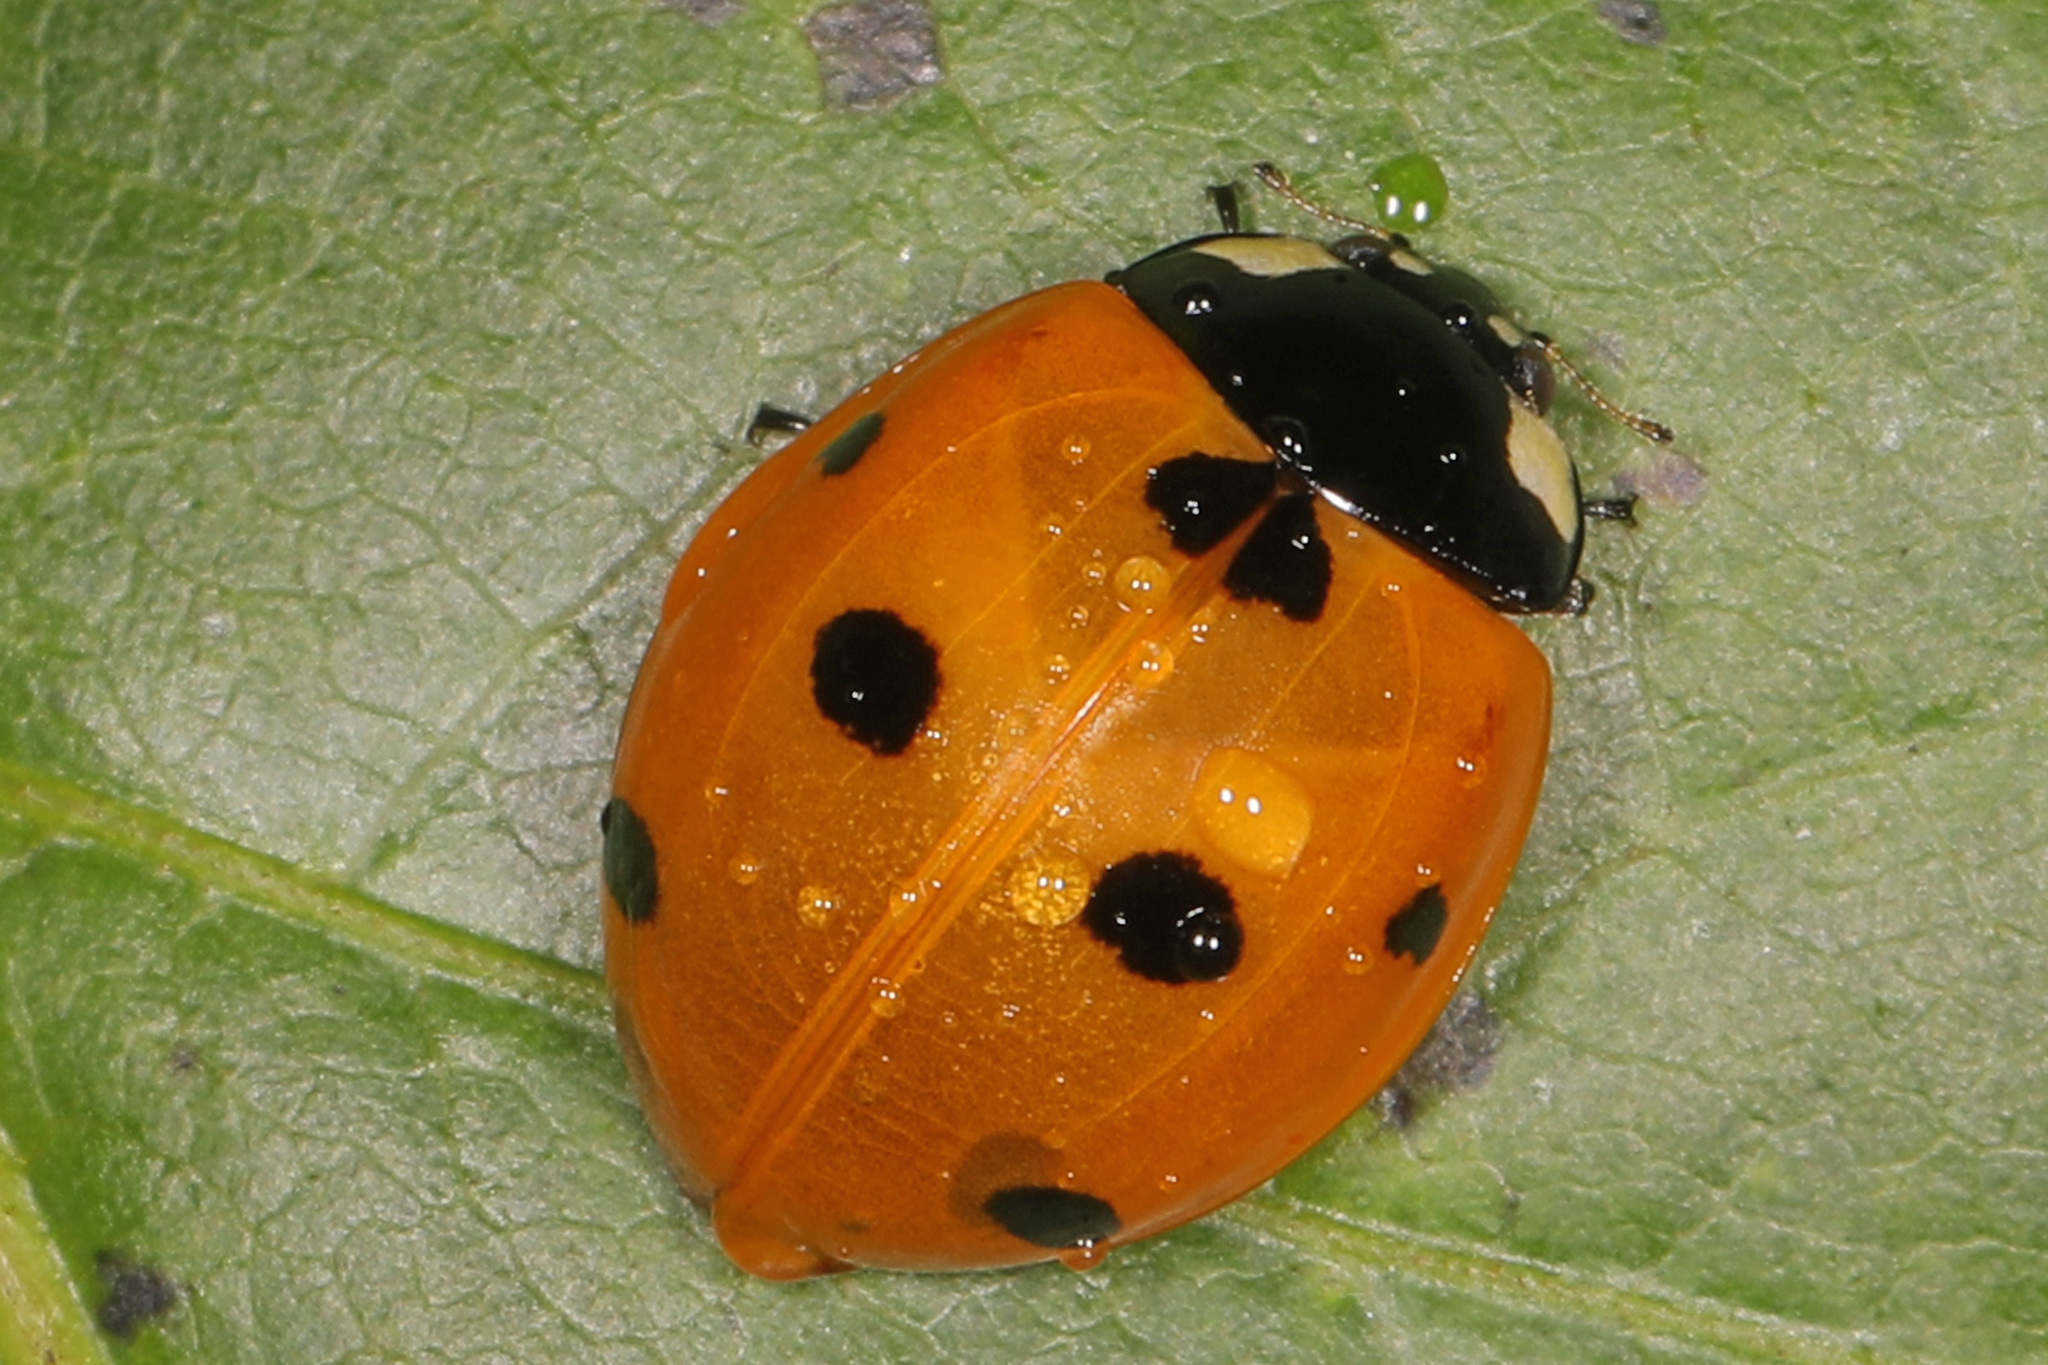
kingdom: Animalia
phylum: Arthropoda
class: Insecta
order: Coleoptera
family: Coccinellidae
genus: Coccinella
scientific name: Coccinella septempunctata
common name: Sevenspotted lady beetle
